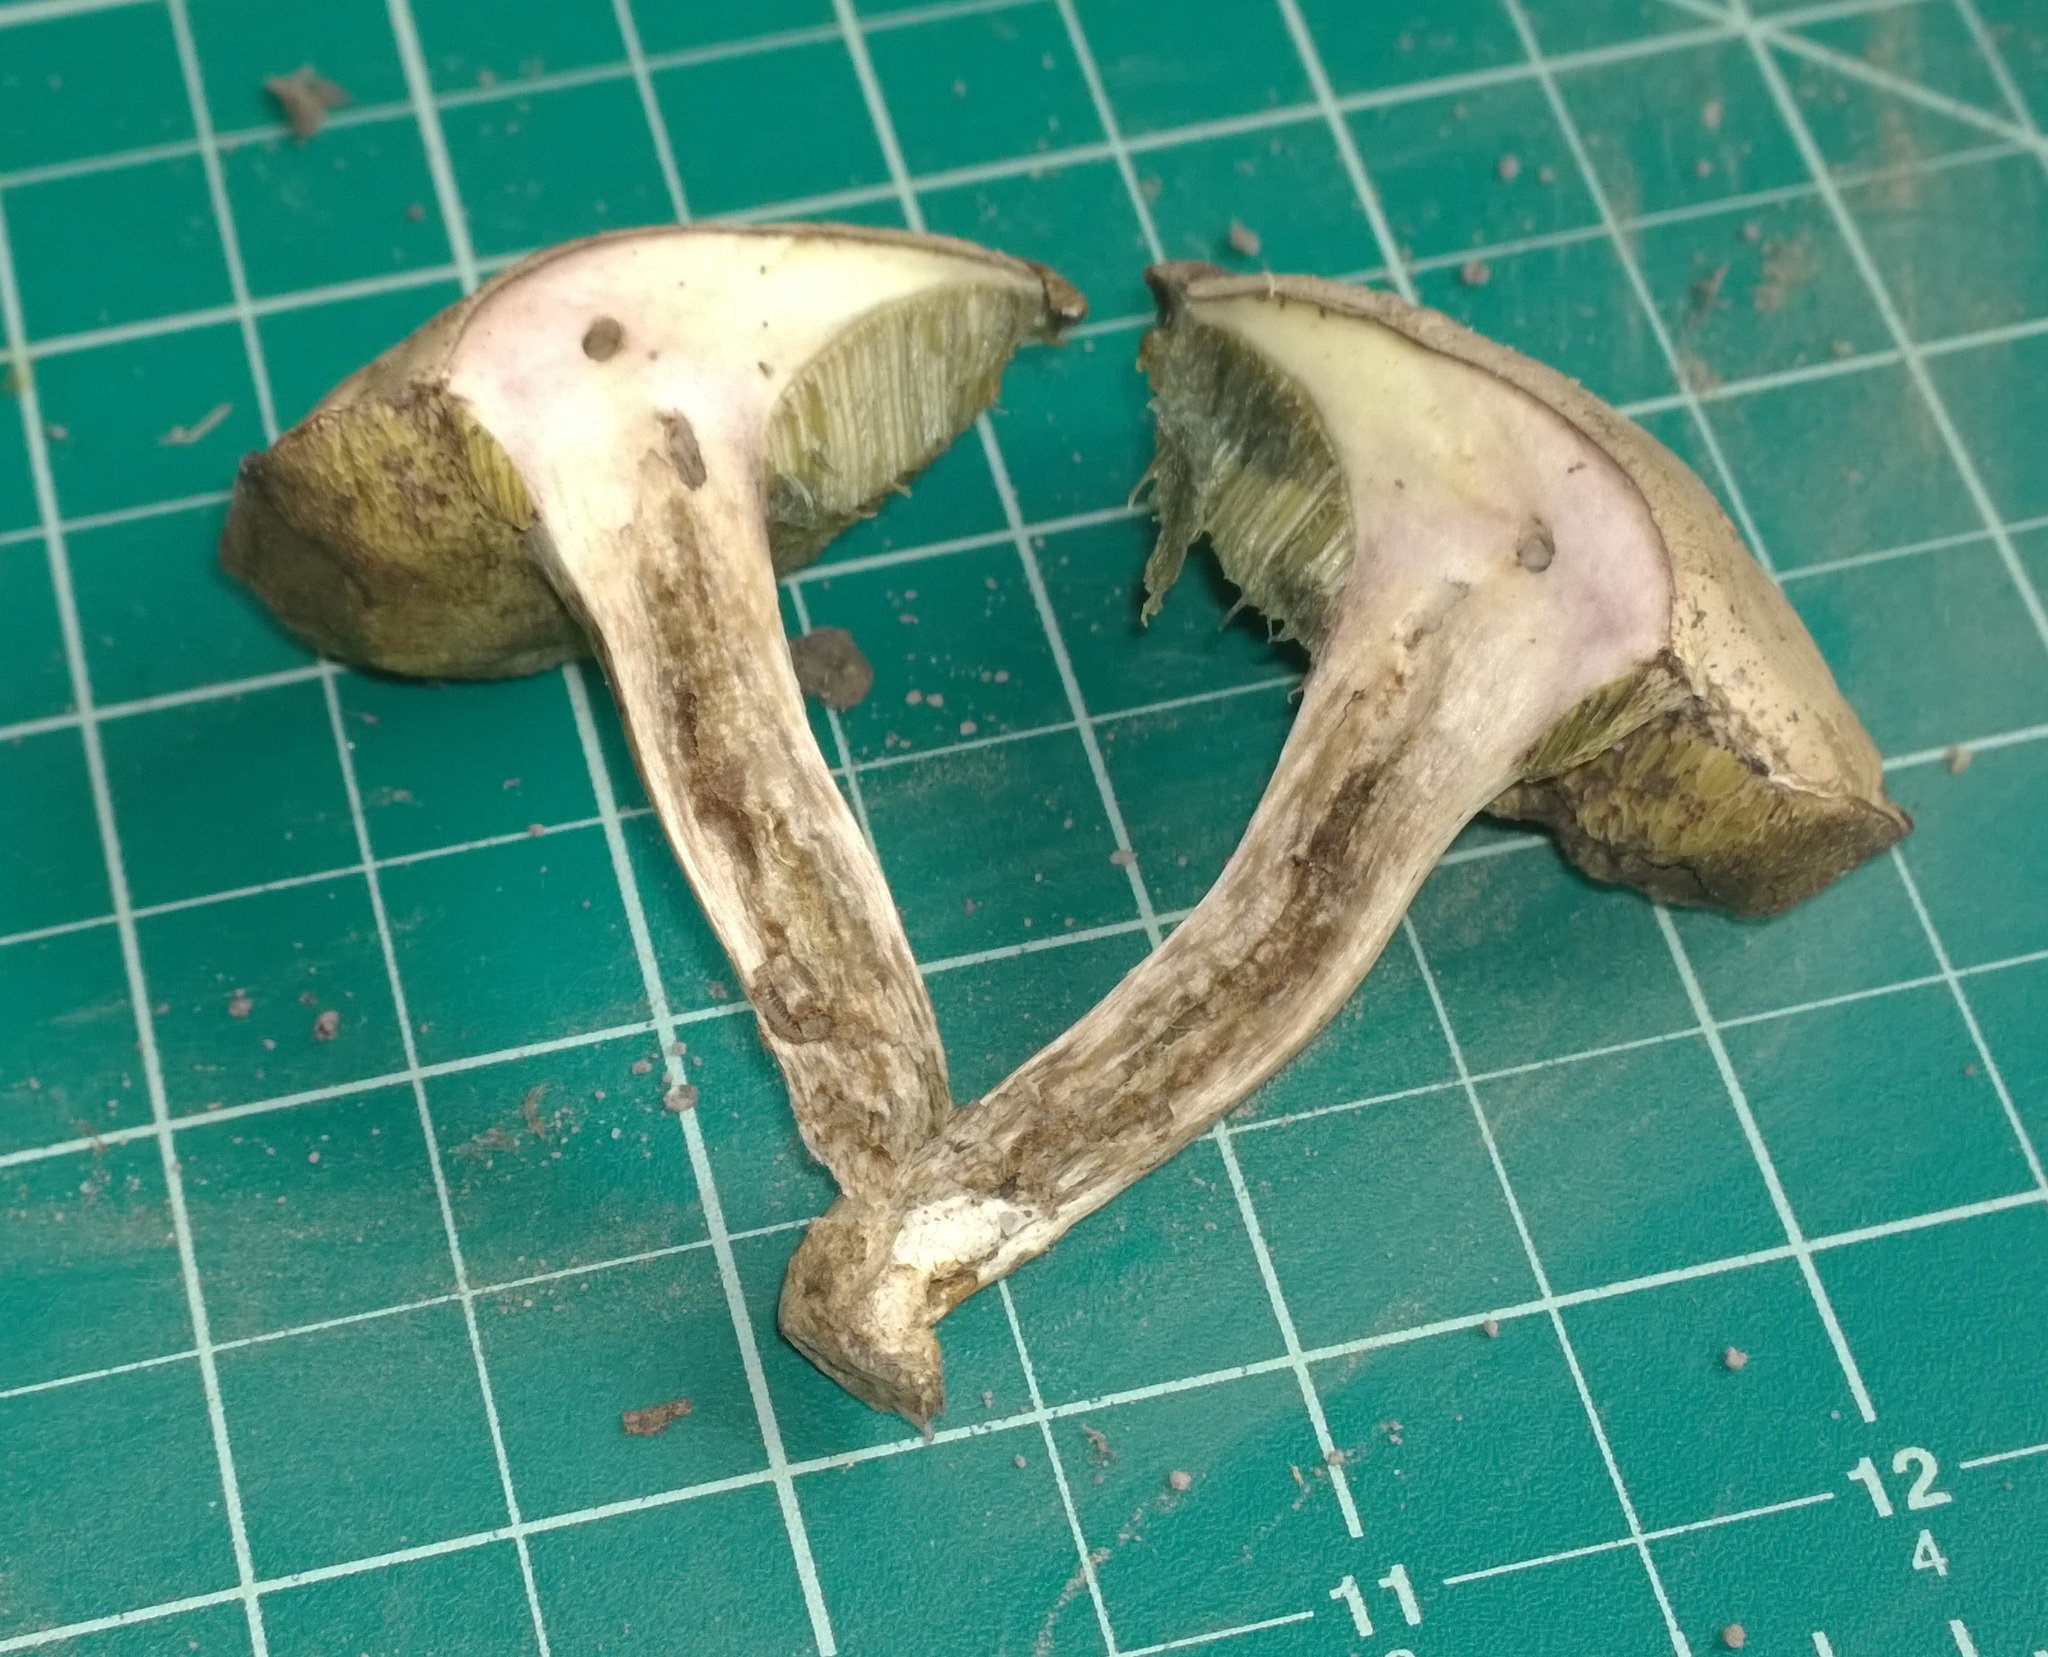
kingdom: Fungi
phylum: Basidiomycota
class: Agaricomycetes
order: Boletales
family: Boletaceae
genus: Imleria
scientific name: Imleria pallida
